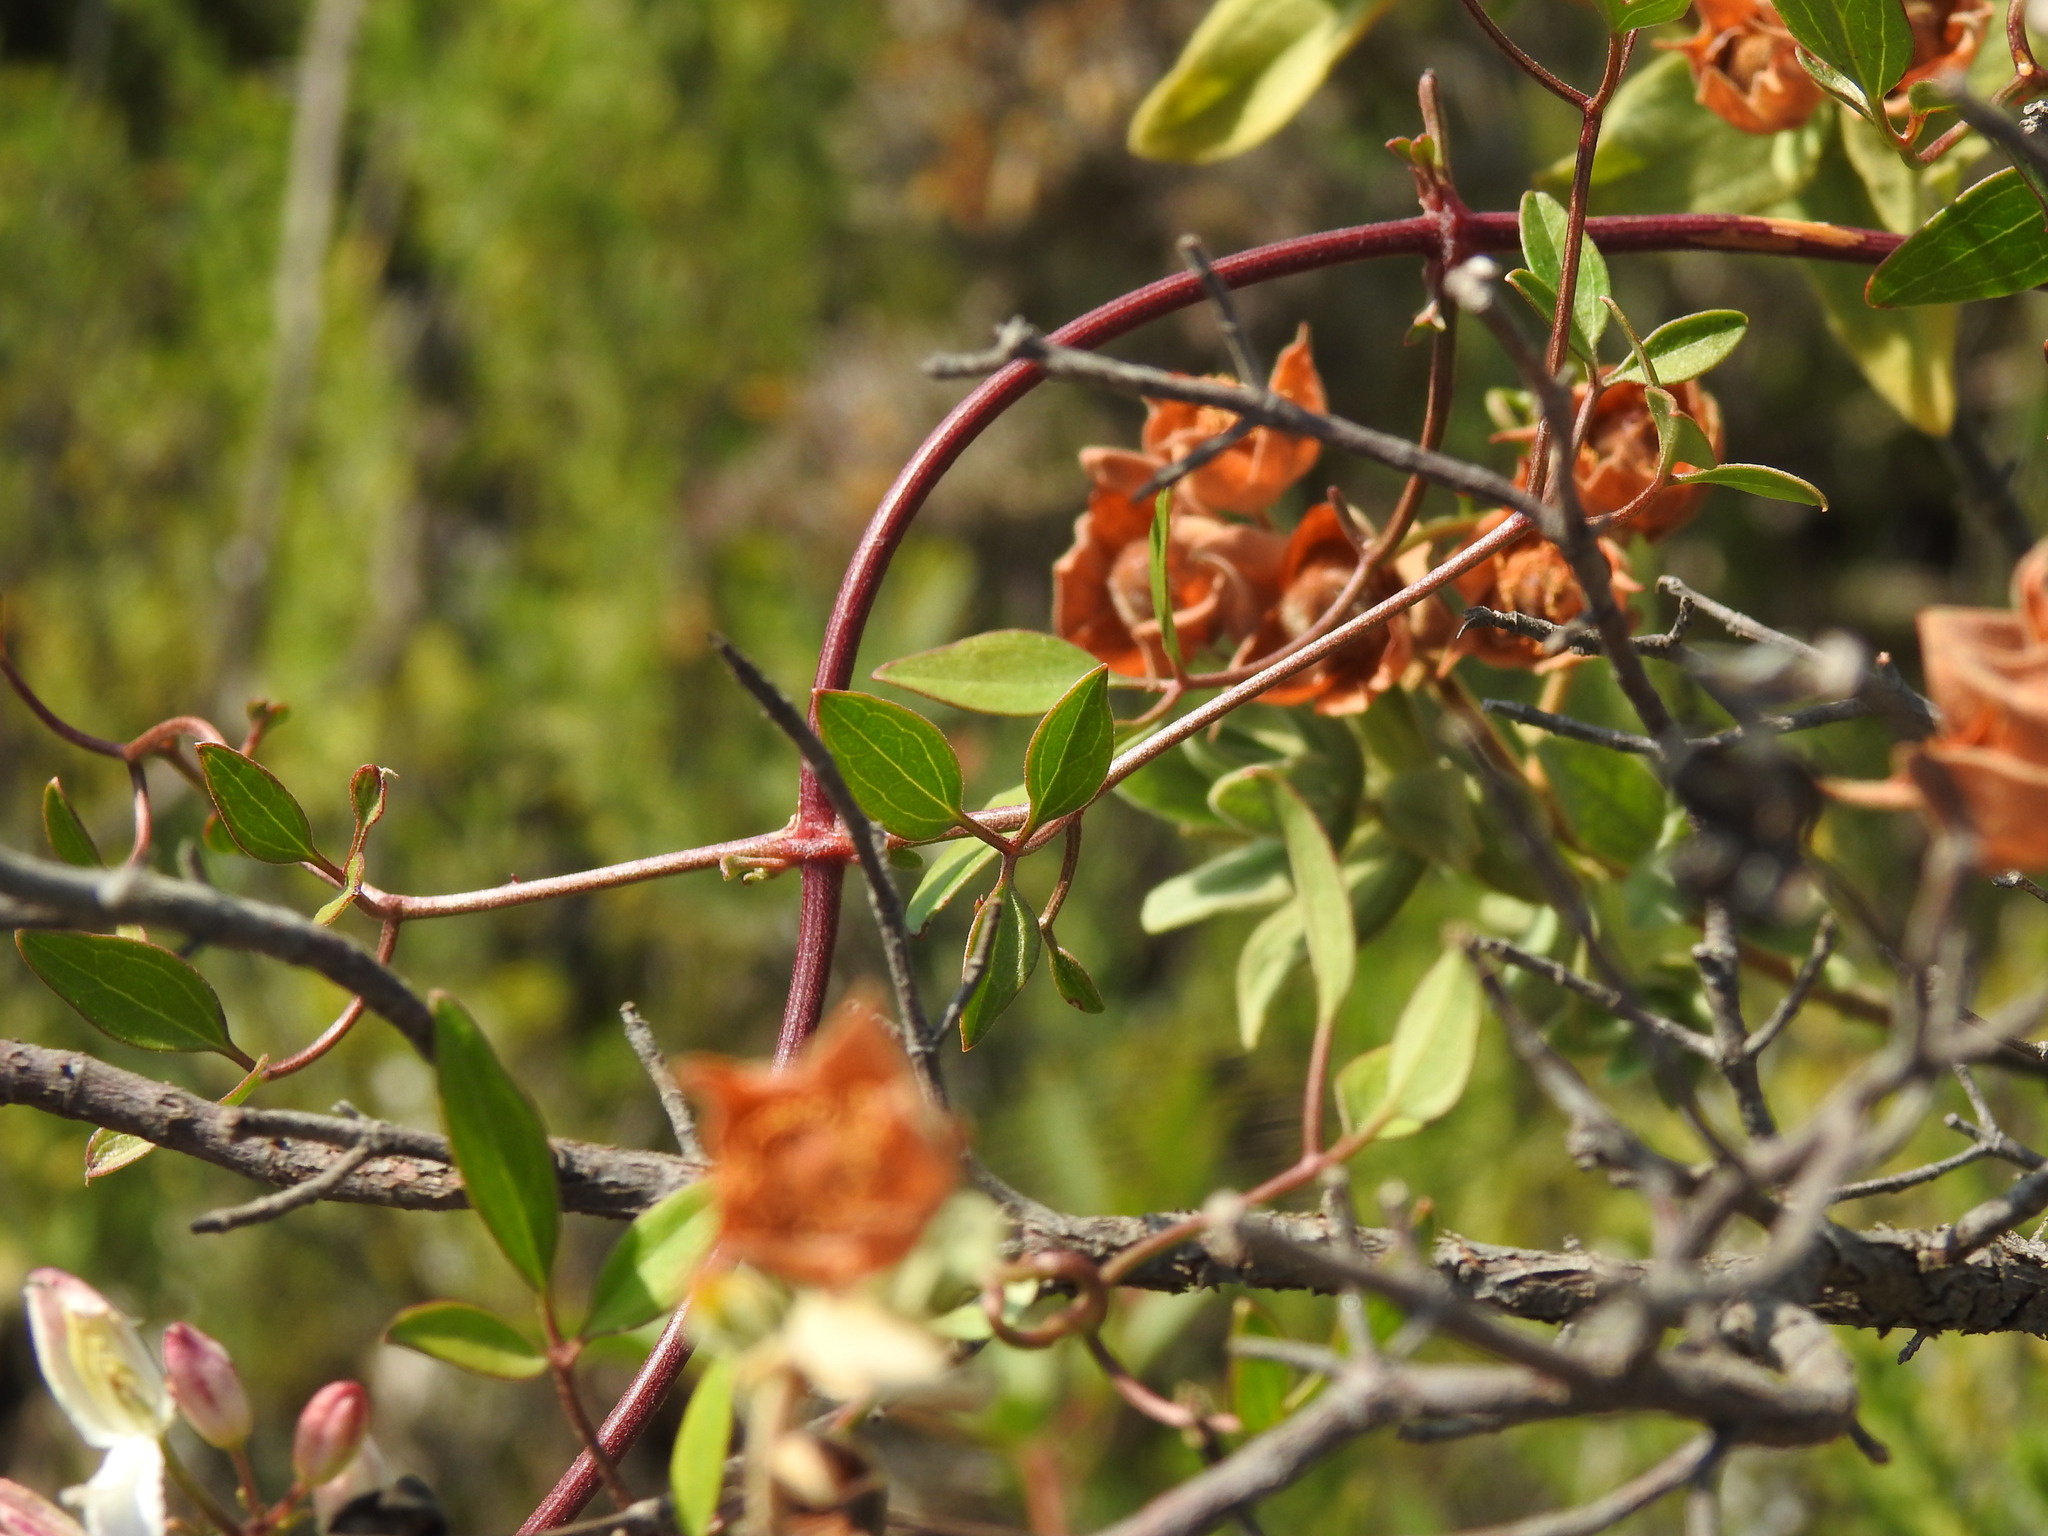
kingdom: Plantae
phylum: Tracheophyta
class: Magnoliopsida
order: Ranunculales
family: Ranunculaceae
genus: Clematis
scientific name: Clematis flammula
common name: Virgin's-bower
